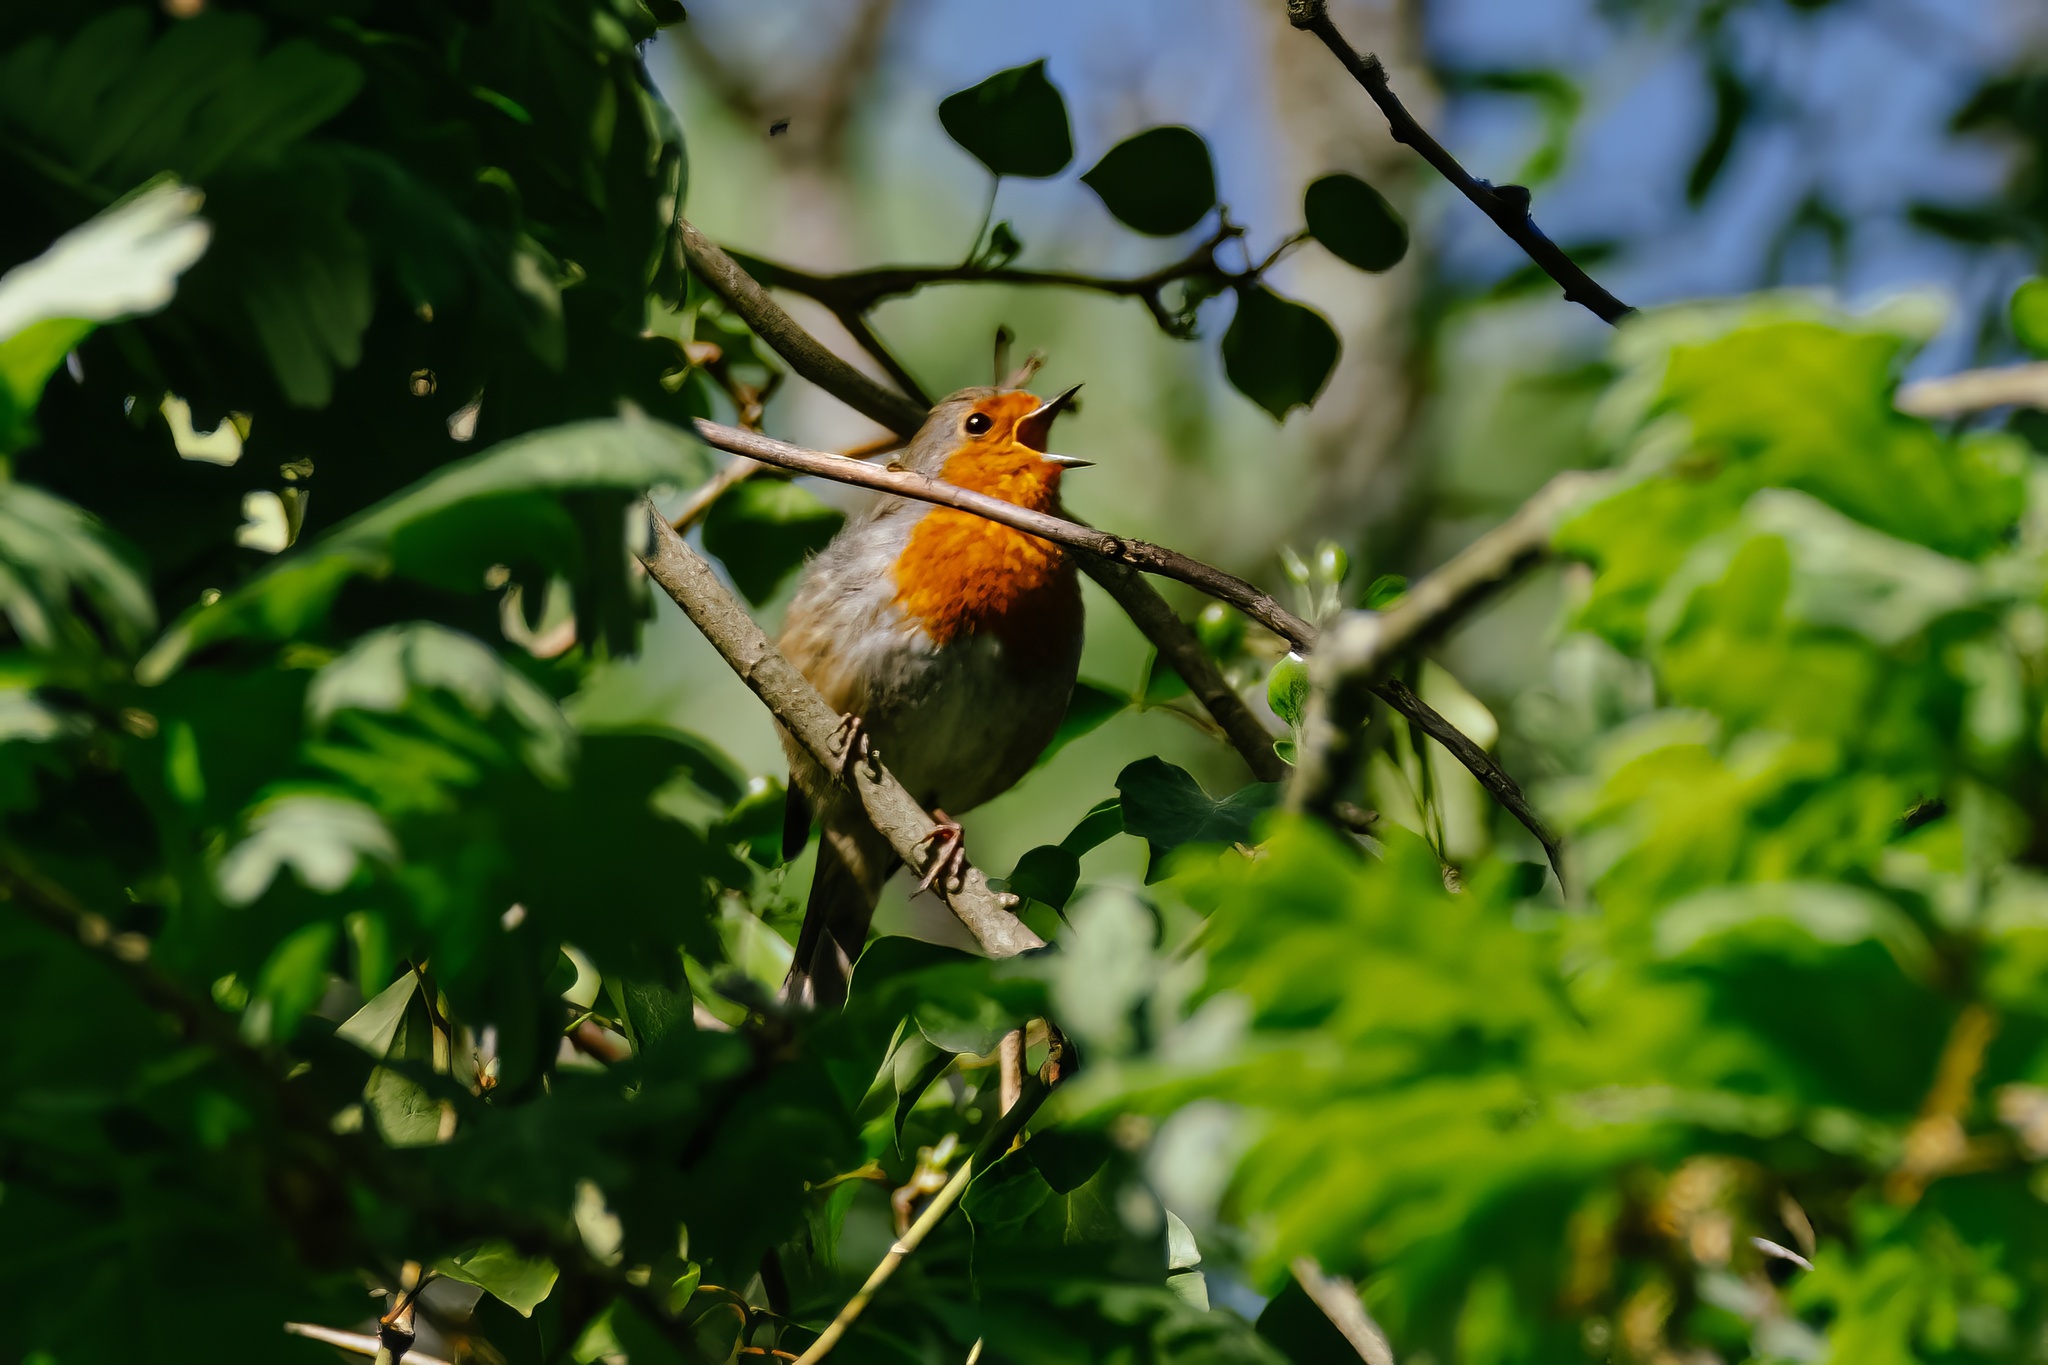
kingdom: Animalia
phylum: Chordata
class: Aves
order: Passeriformes
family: Muscicapidae
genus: Erithacus
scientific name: Erithacus rubecula
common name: European robin
